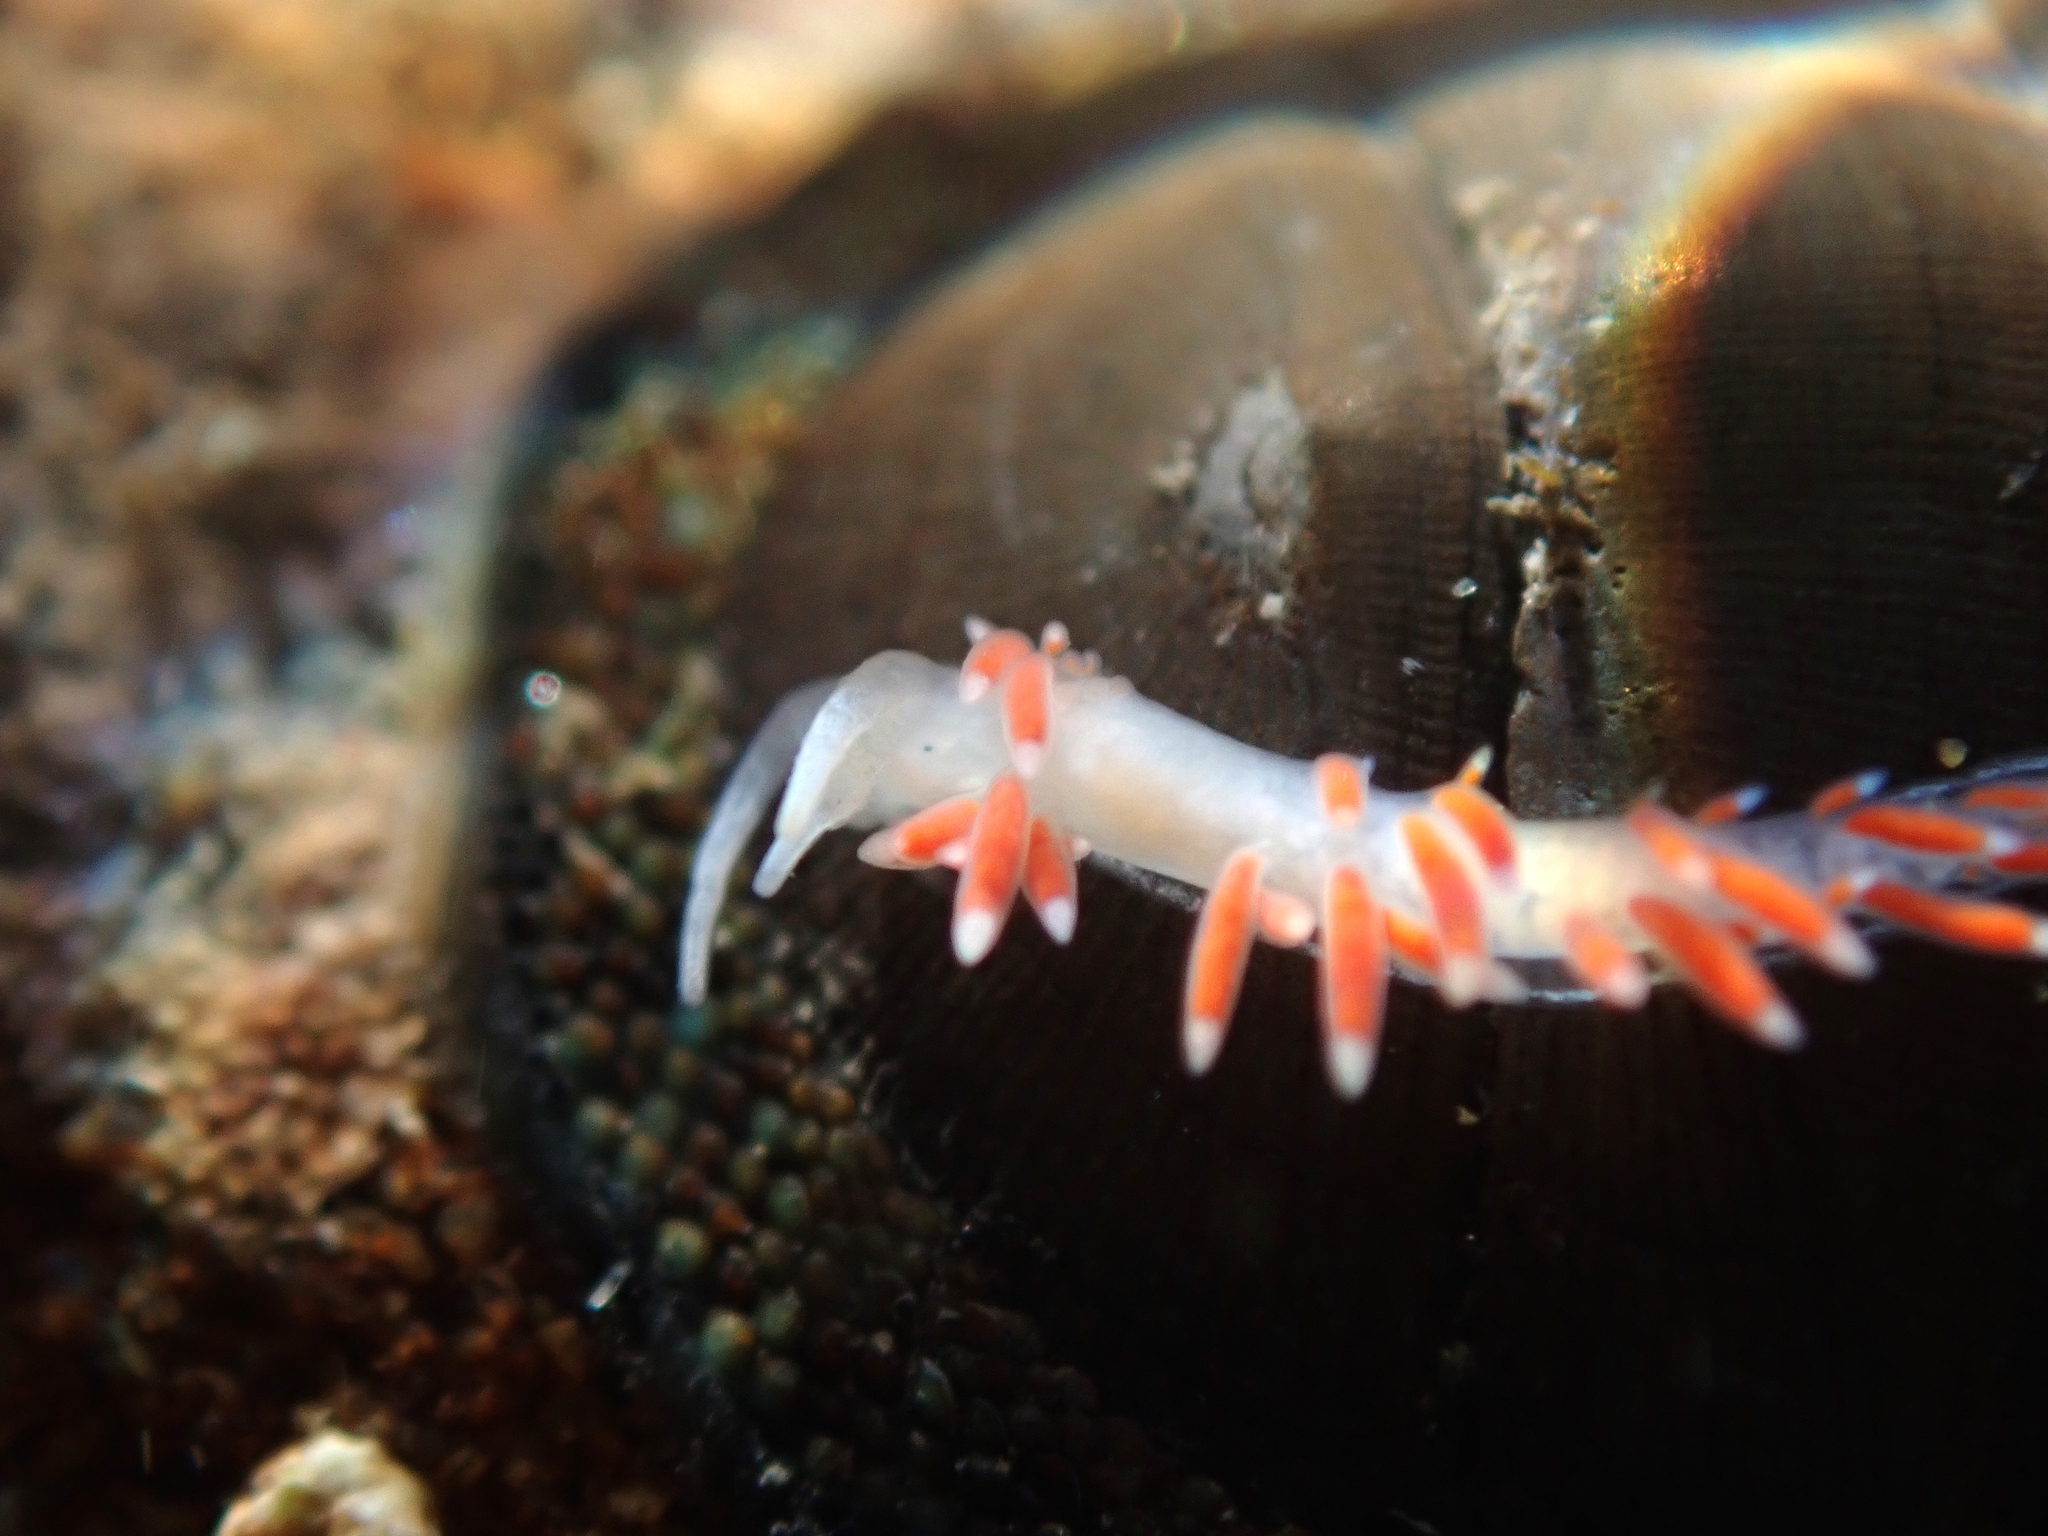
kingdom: Animalia
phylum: Mollusca
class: Gastropoda
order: Nudibranchia
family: Flabellinidae
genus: Coryphellina
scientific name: Coryphellina albomarginata
